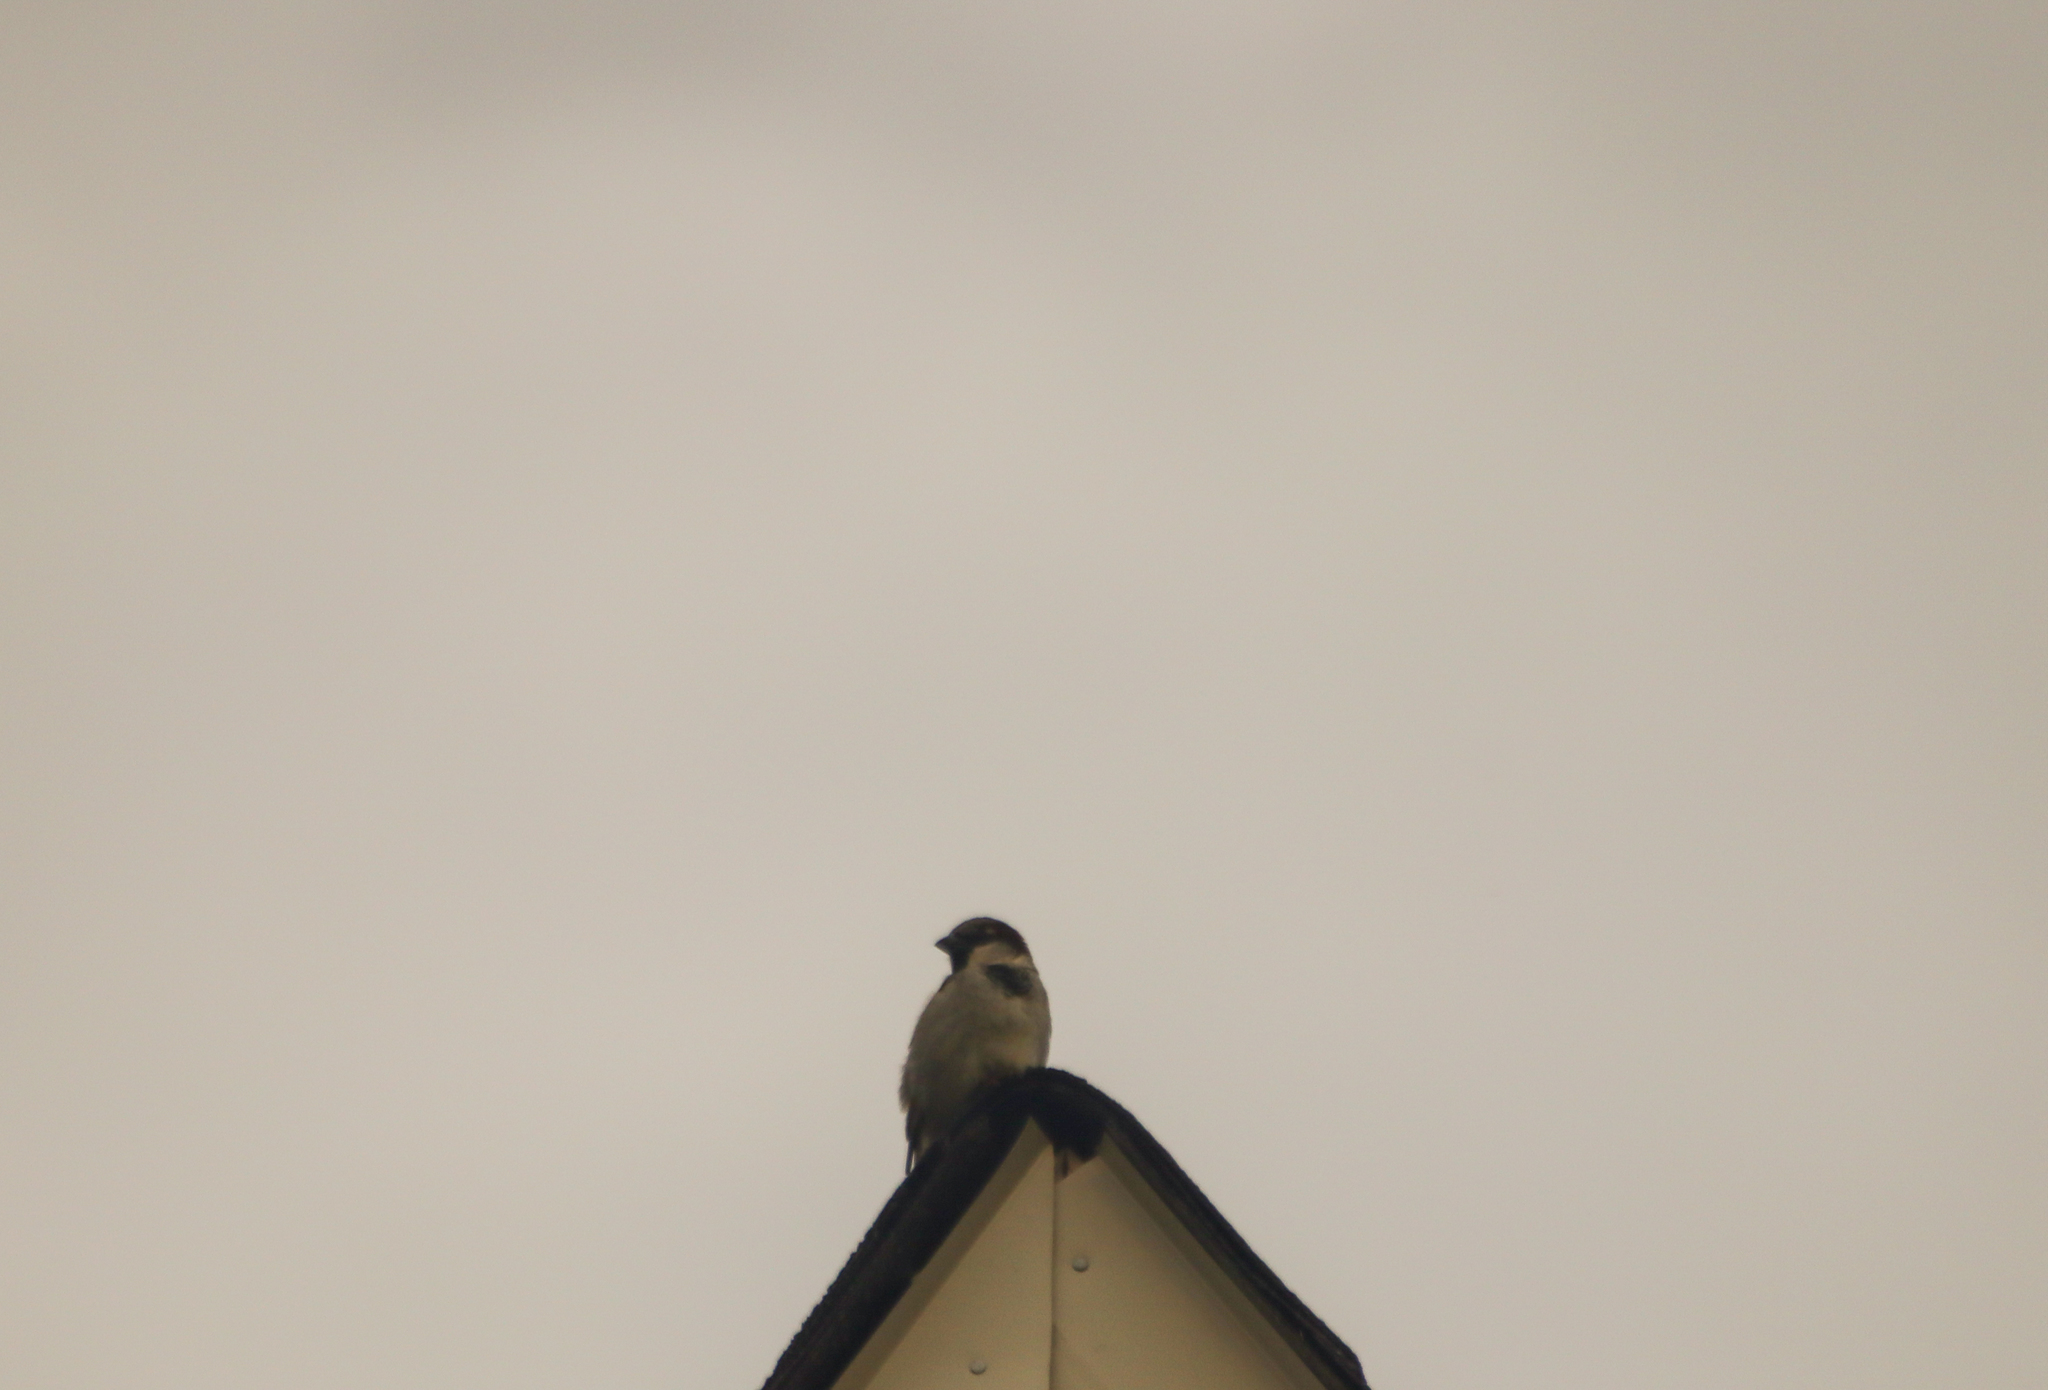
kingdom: Animalia
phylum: Chordata
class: Aves
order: Passeriformes
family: Passeridae
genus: Passer
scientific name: Passer domesticus
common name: House sparrow
